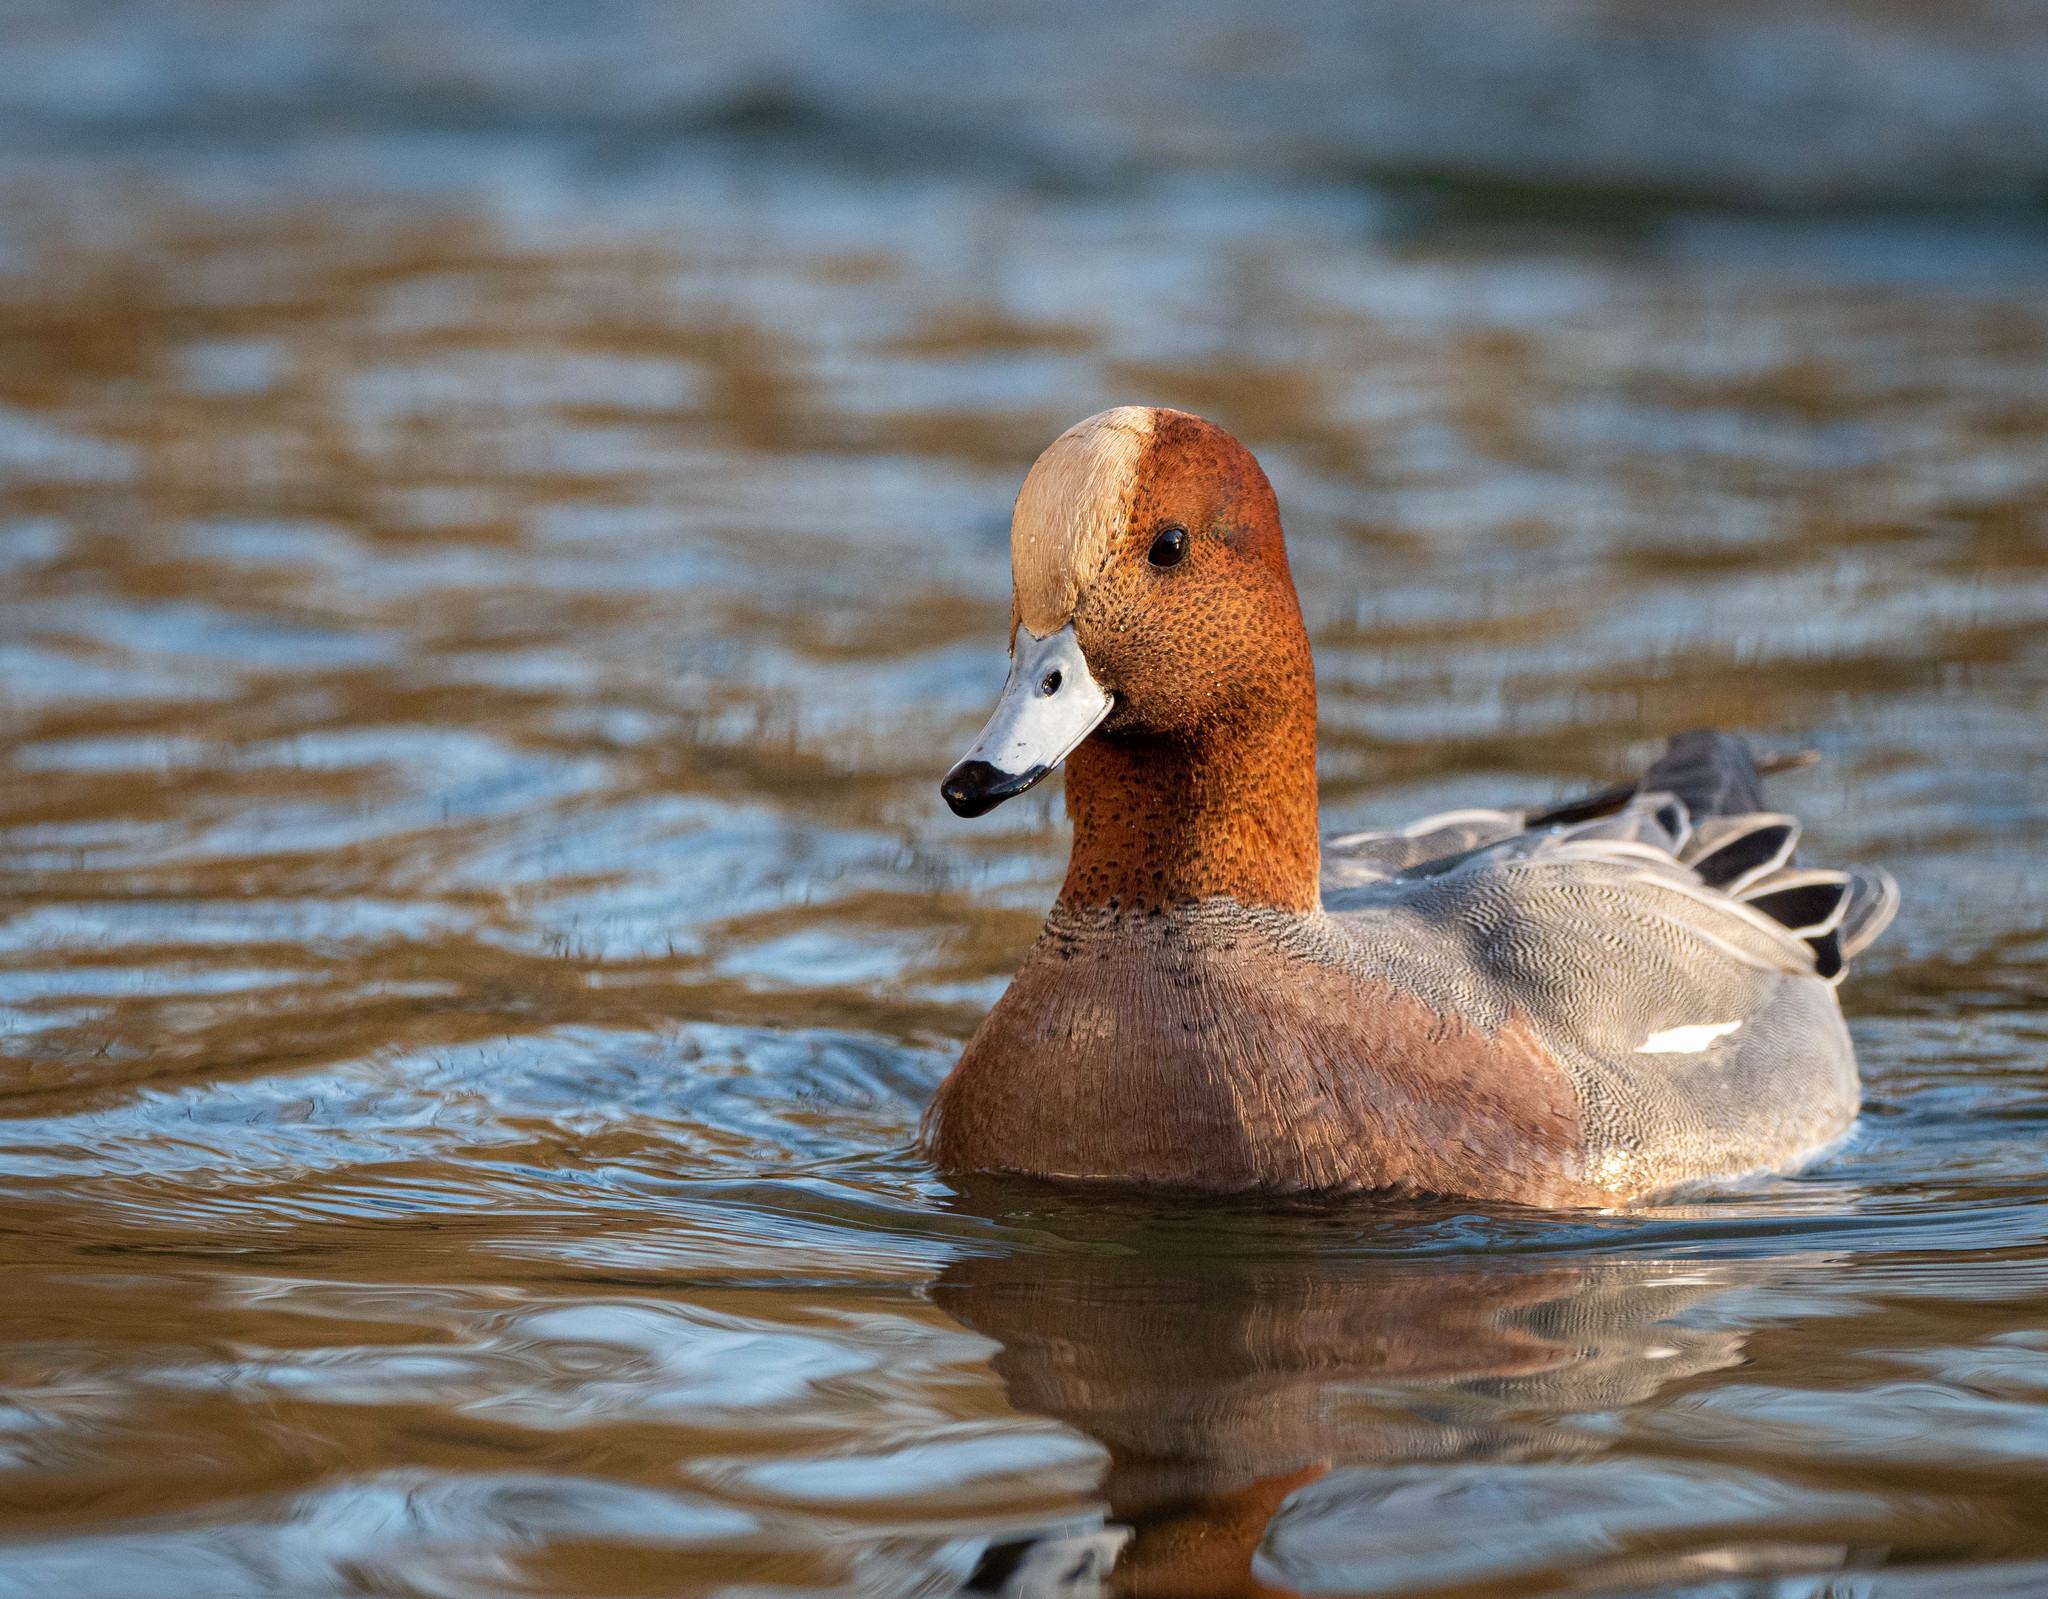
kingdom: Animalia
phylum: Chordata
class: Aves
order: Anseriformes
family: Anatidae
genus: Mareca
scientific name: Mareca penelope
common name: Eurasian wigeon
